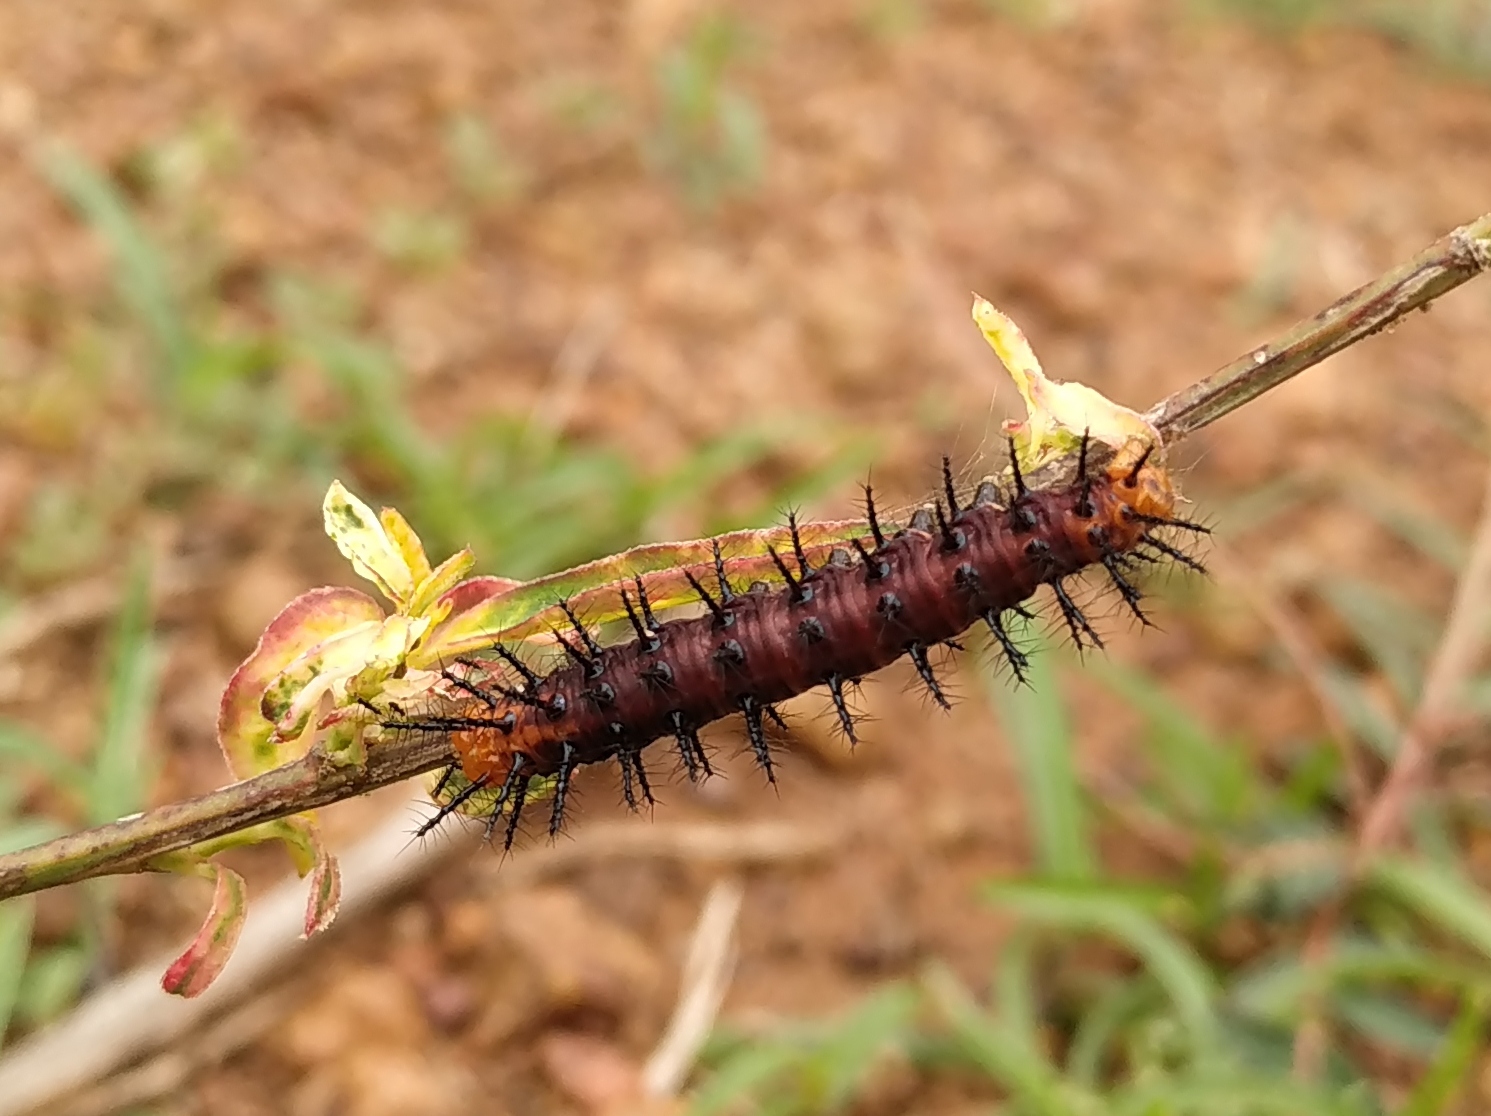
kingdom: Animalia
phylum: Arthropoda
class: Insecta
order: Lepidoptera
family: Nymphalidae
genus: Acraea
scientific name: Acraea terpsicore
